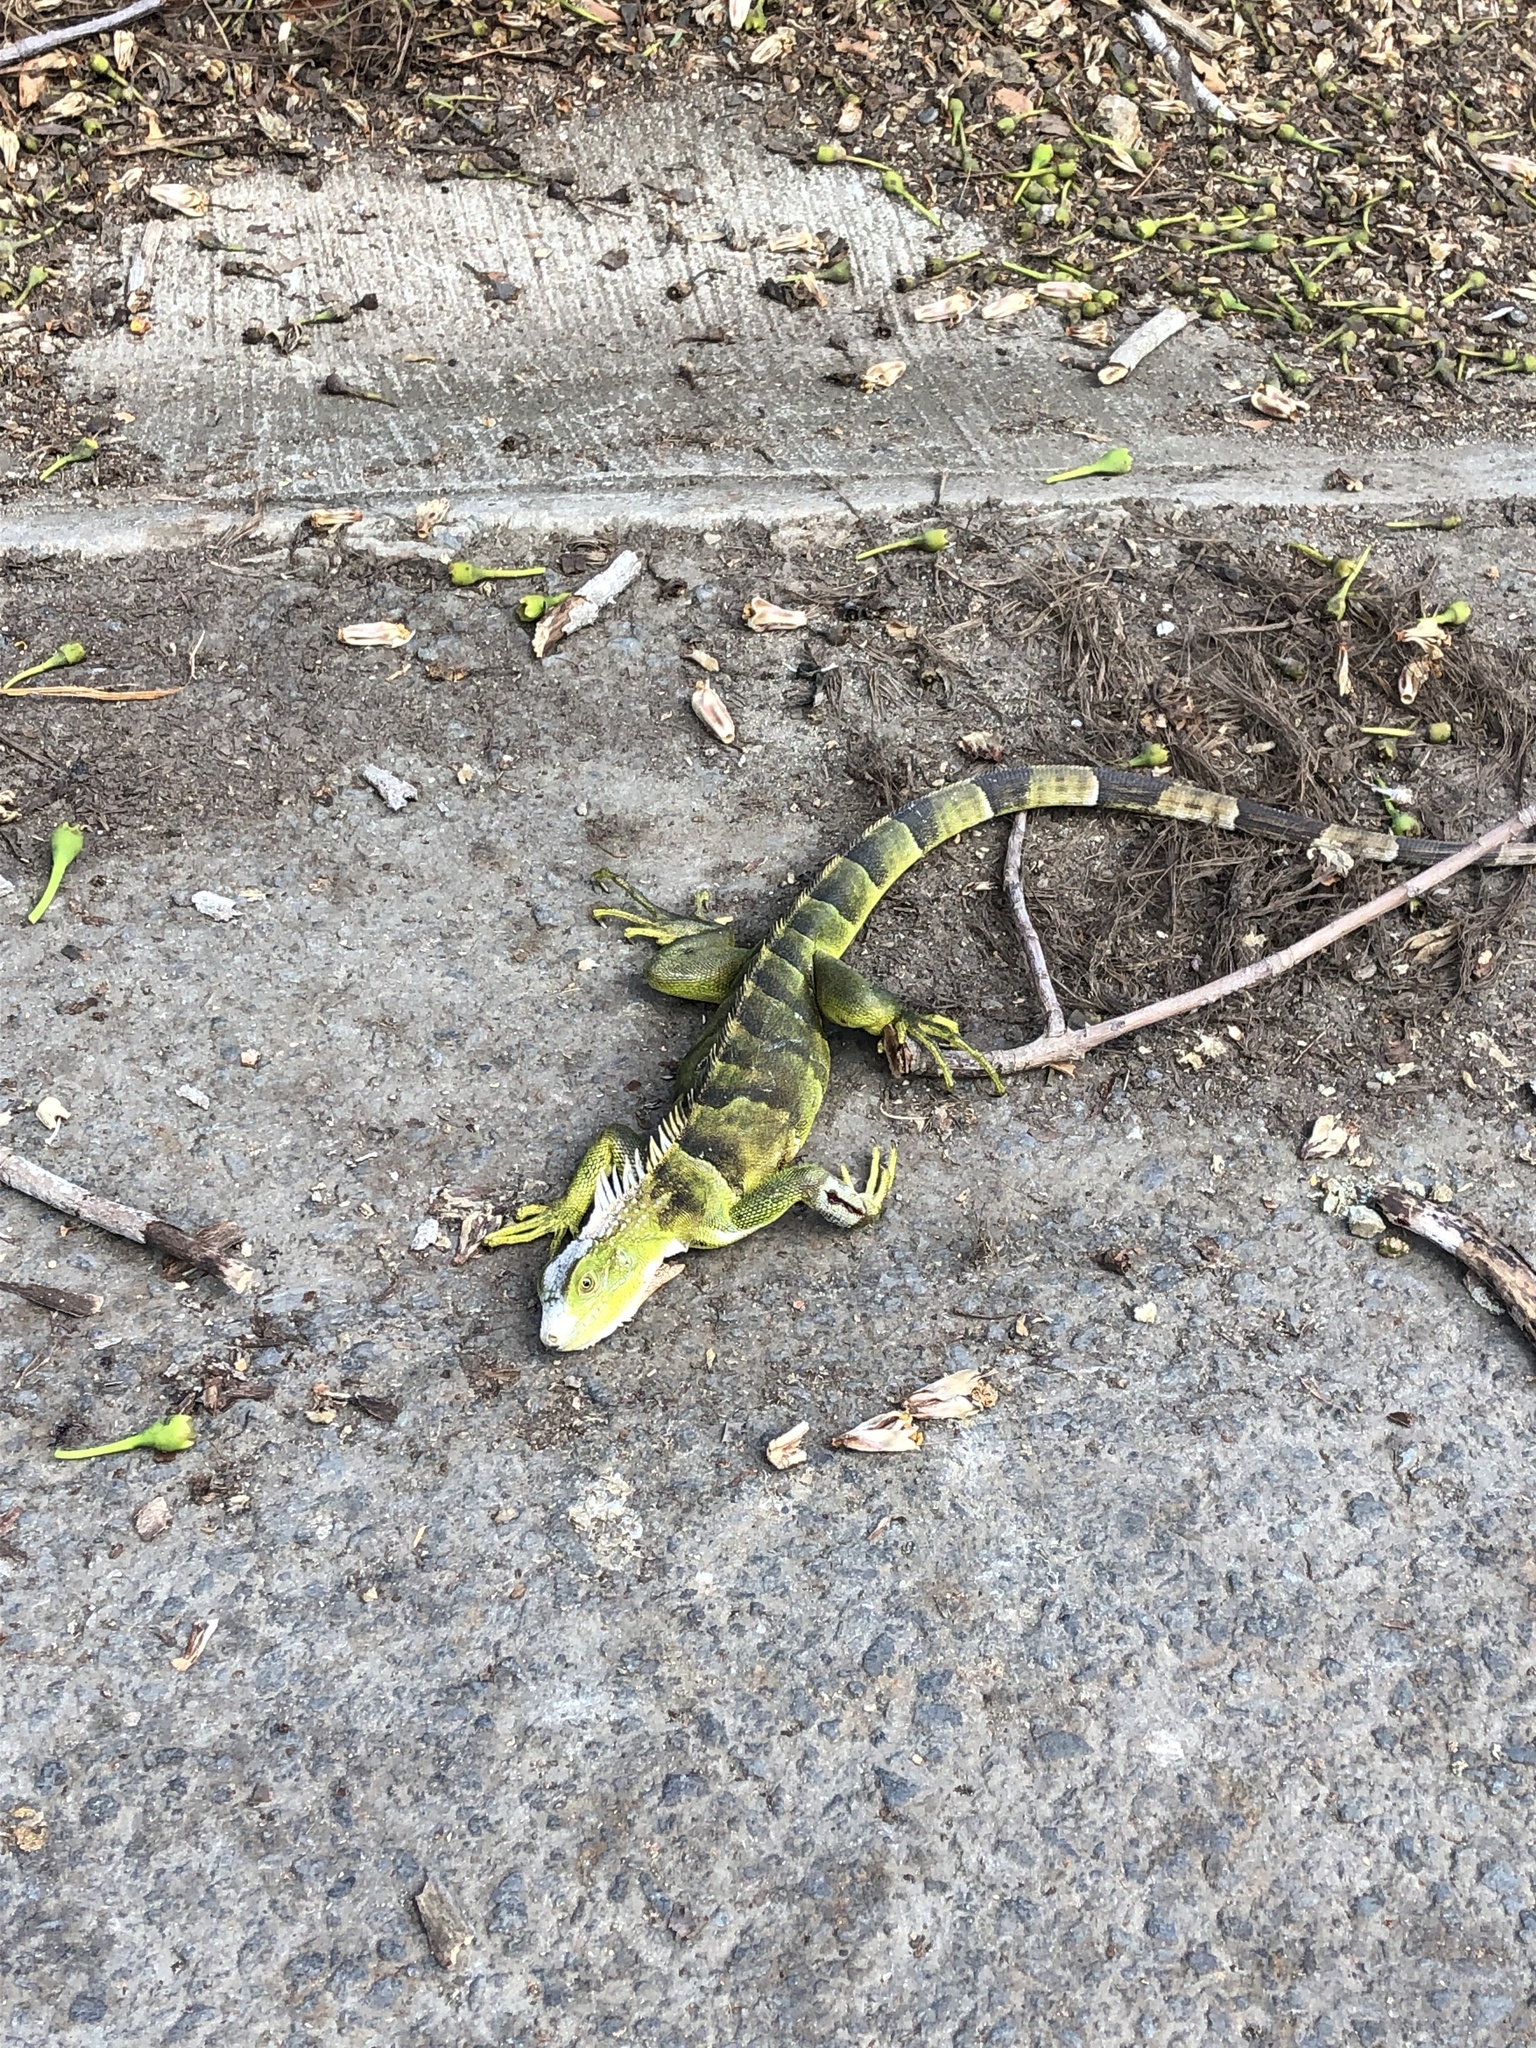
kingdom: Animalia
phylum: Chordata
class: Squamata
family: Iguanidae
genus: Iguana
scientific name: Iguana iguana
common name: Green iguana
